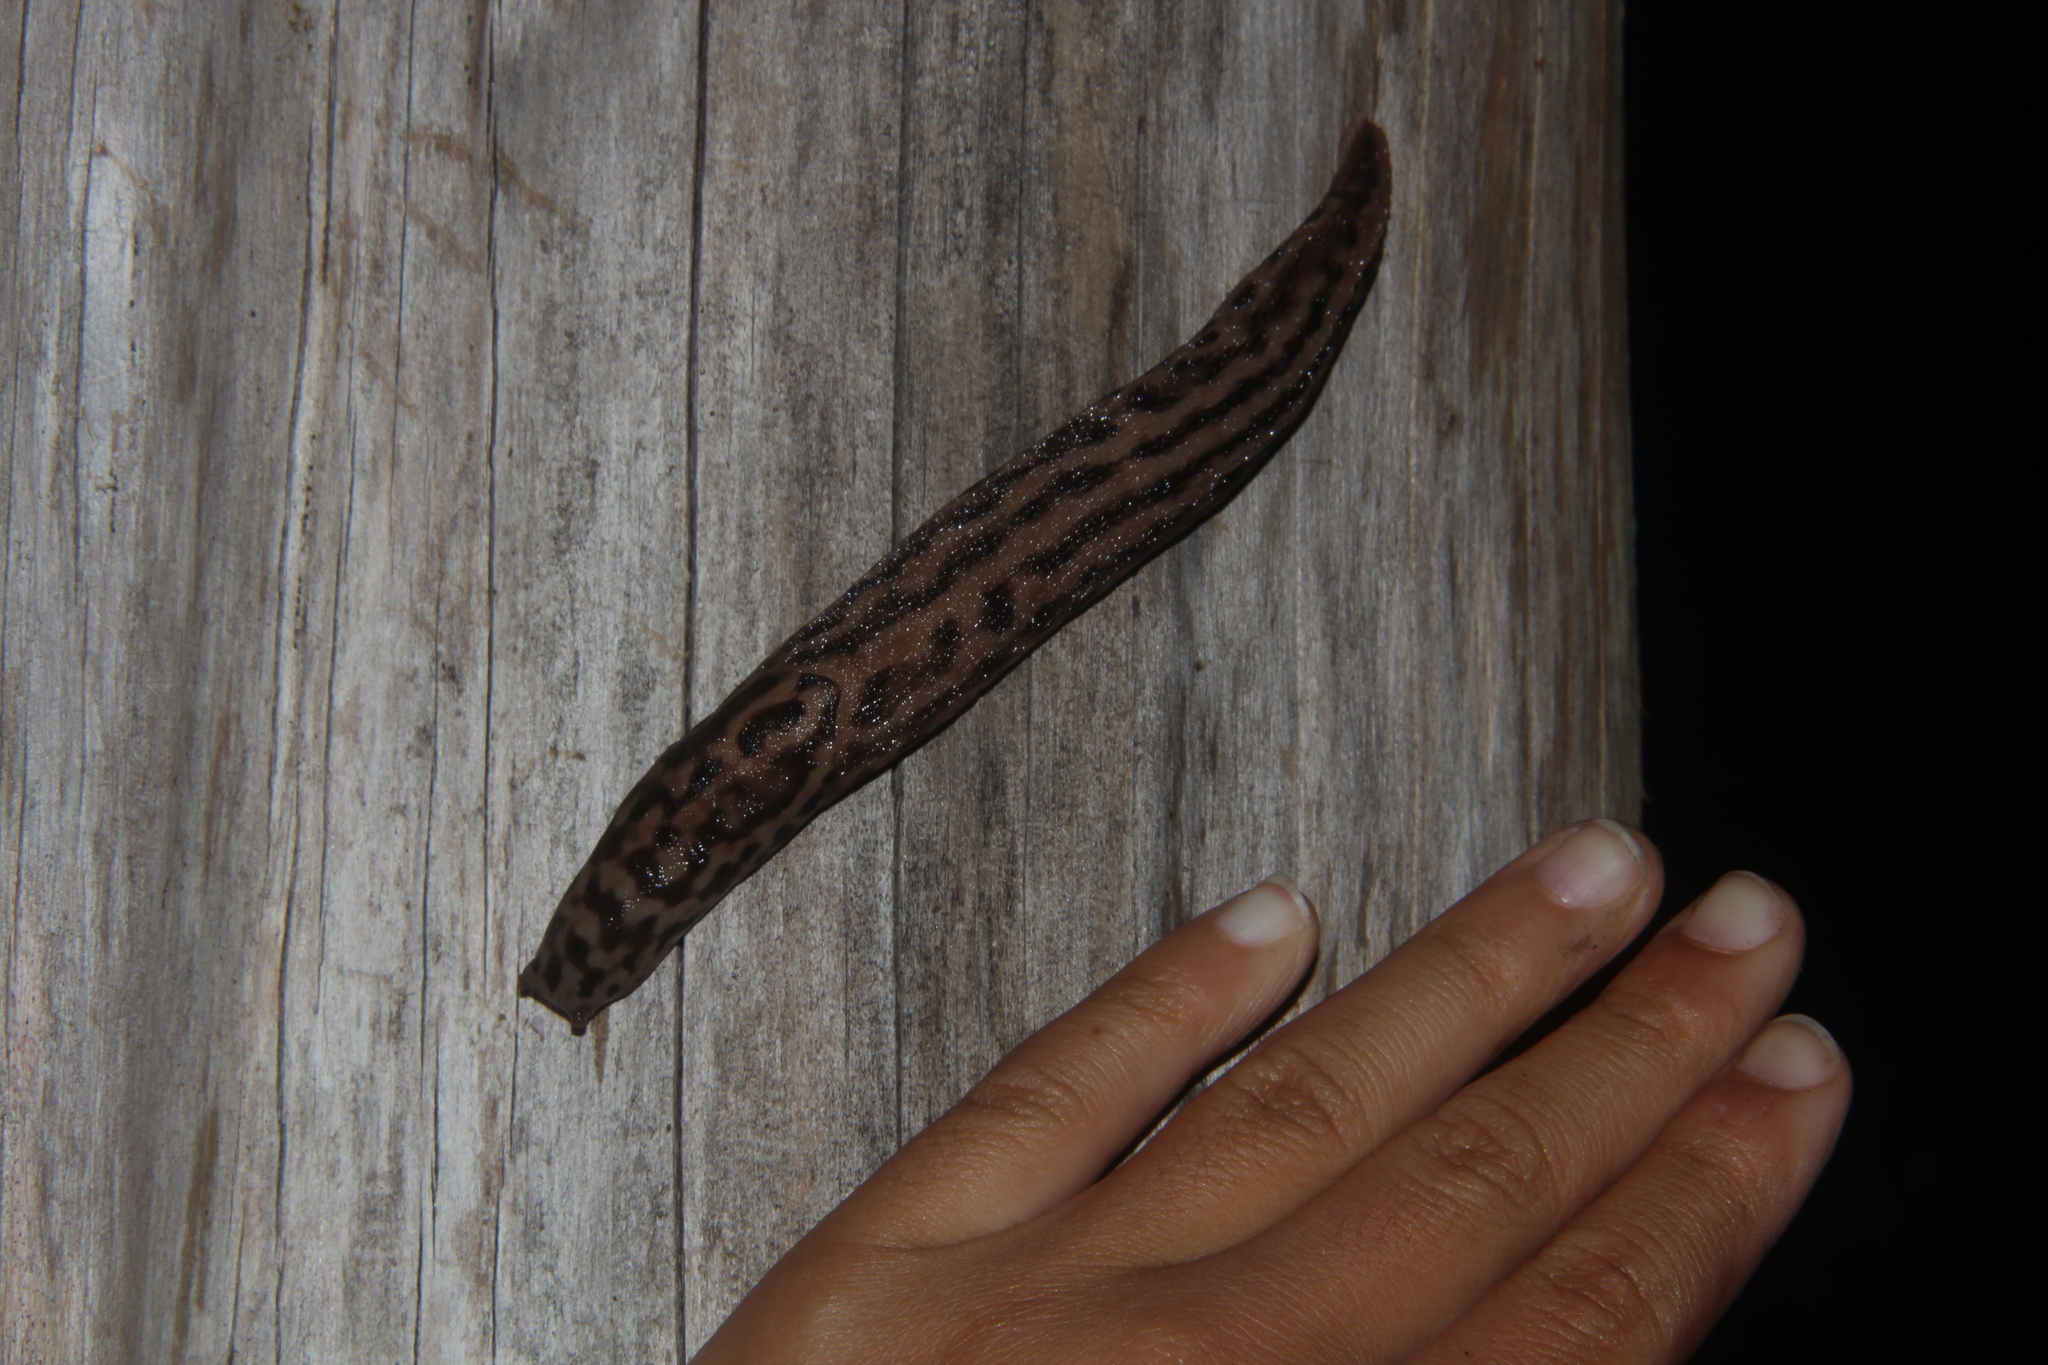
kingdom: Animalia
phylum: Mollusca
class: Gastropoda
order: Stylommatophora
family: Limacidae
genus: Limax
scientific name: Limax maximus
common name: Great grey slug
